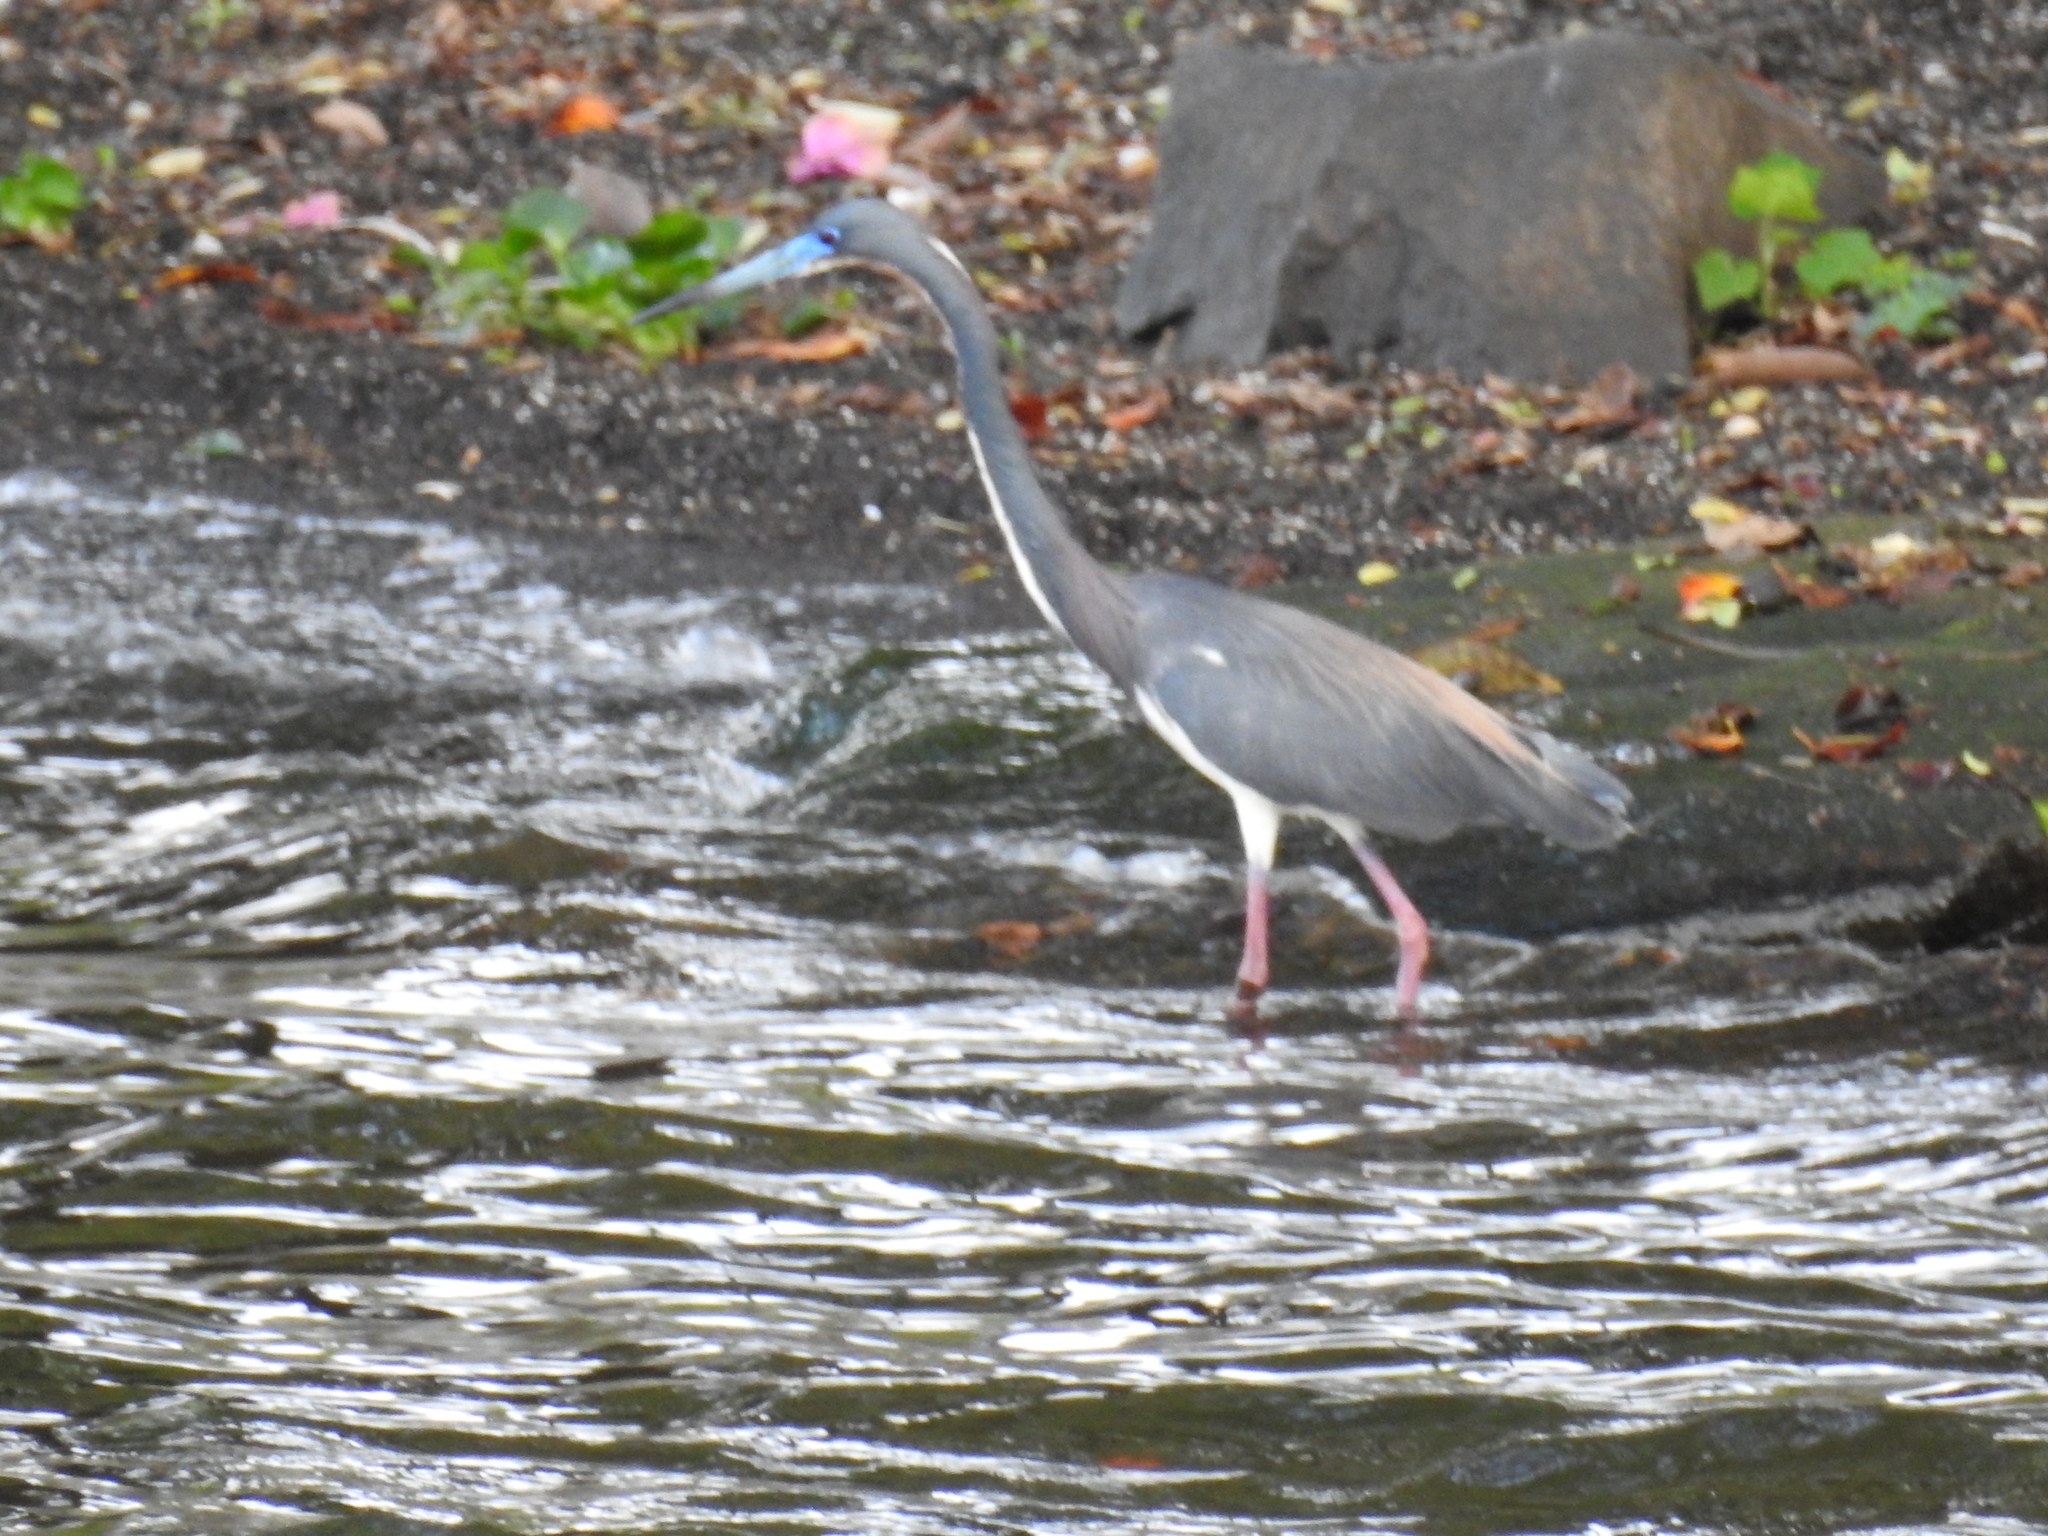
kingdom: Animalia
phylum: Chordata
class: Aves
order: Pelecaniformes
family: Ardeidae
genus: Egretta
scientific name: Egretta tricolor
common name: Tricolored heron
